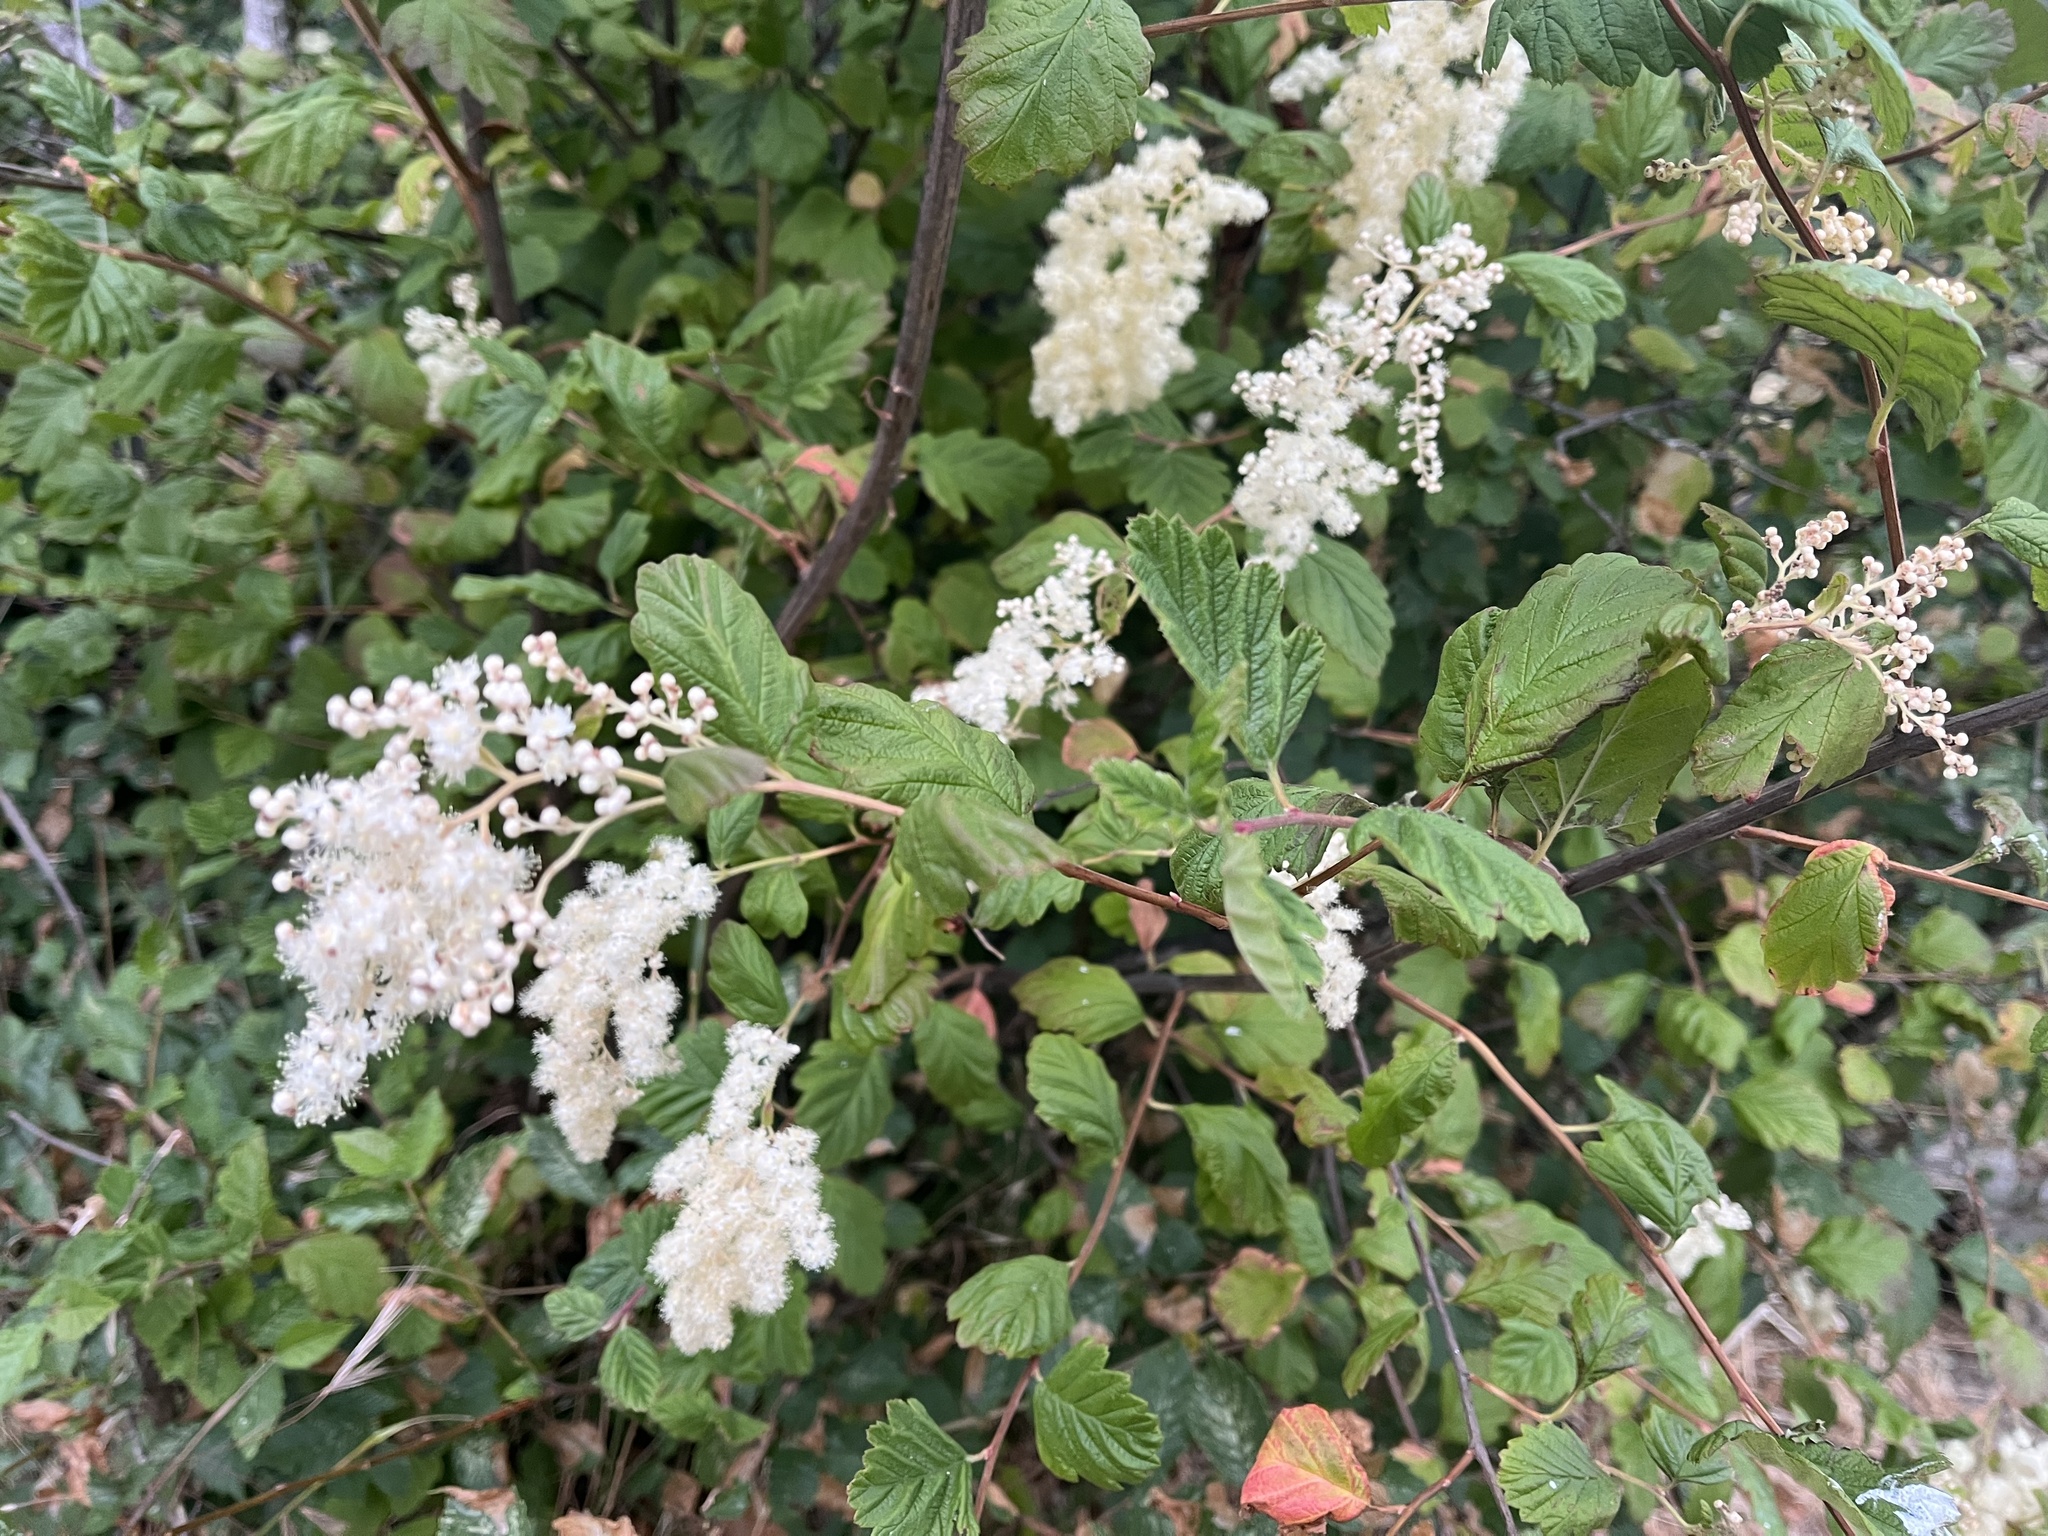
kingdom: Plantae
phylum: Tracheophyta
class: Magnoliopsida
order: Rosales
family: Rosaceae
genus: Holodiscus
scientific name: Holodiscus discolor
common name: Oceanspray
